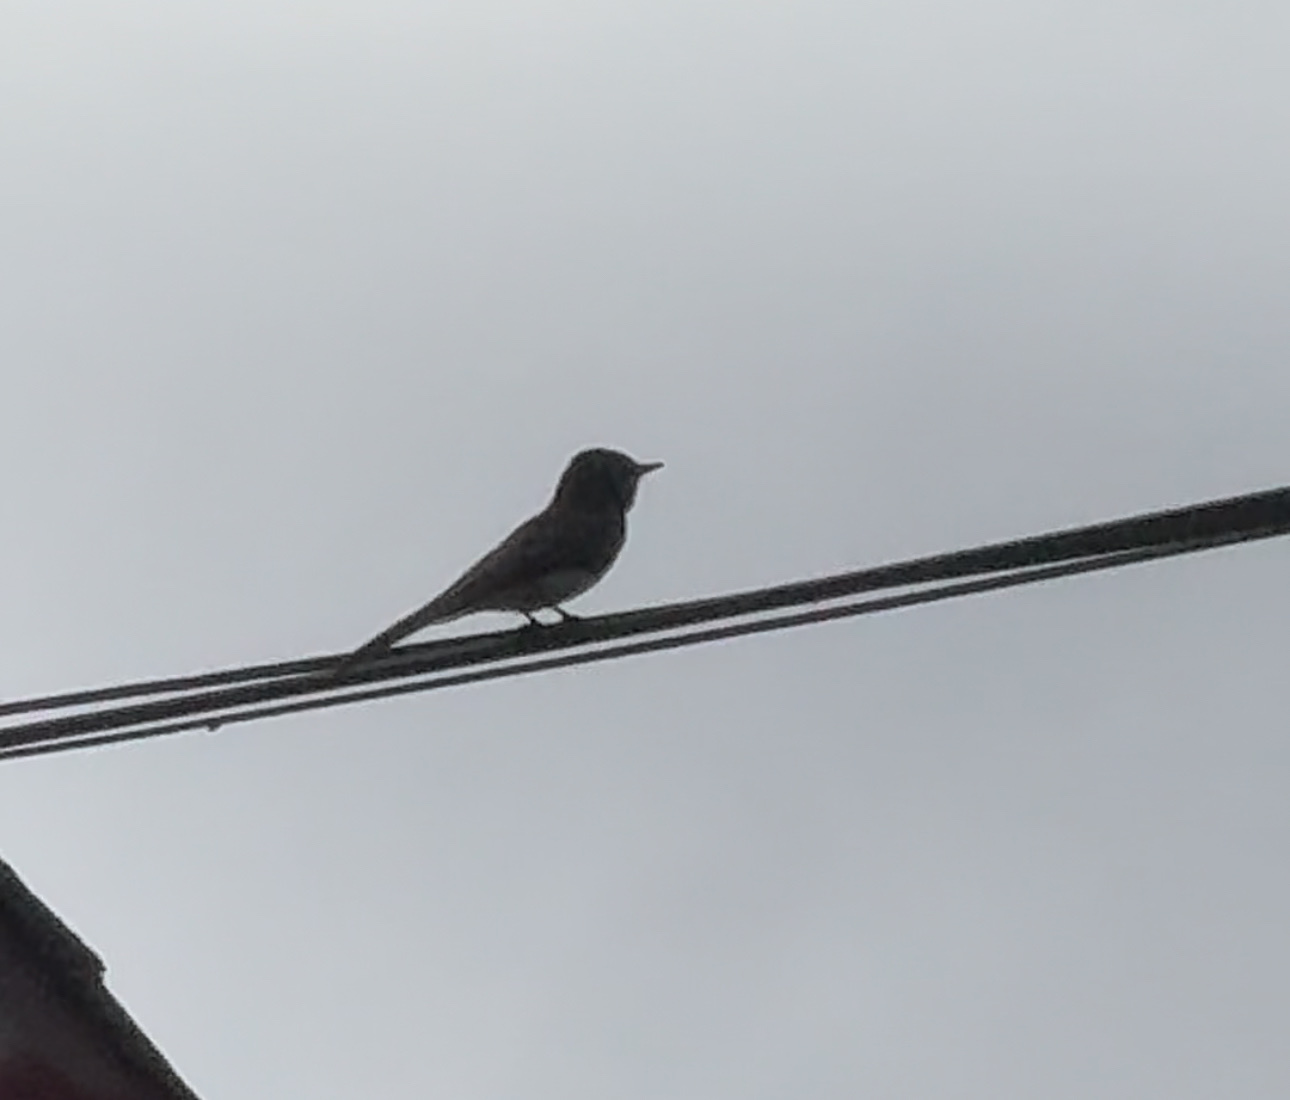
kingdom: Animalia
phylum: Chordata
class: Aves
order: Passeriformes
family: Tyrannidae
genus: Sayornis
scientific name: Sayornis nigricans
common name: Black phoebe
